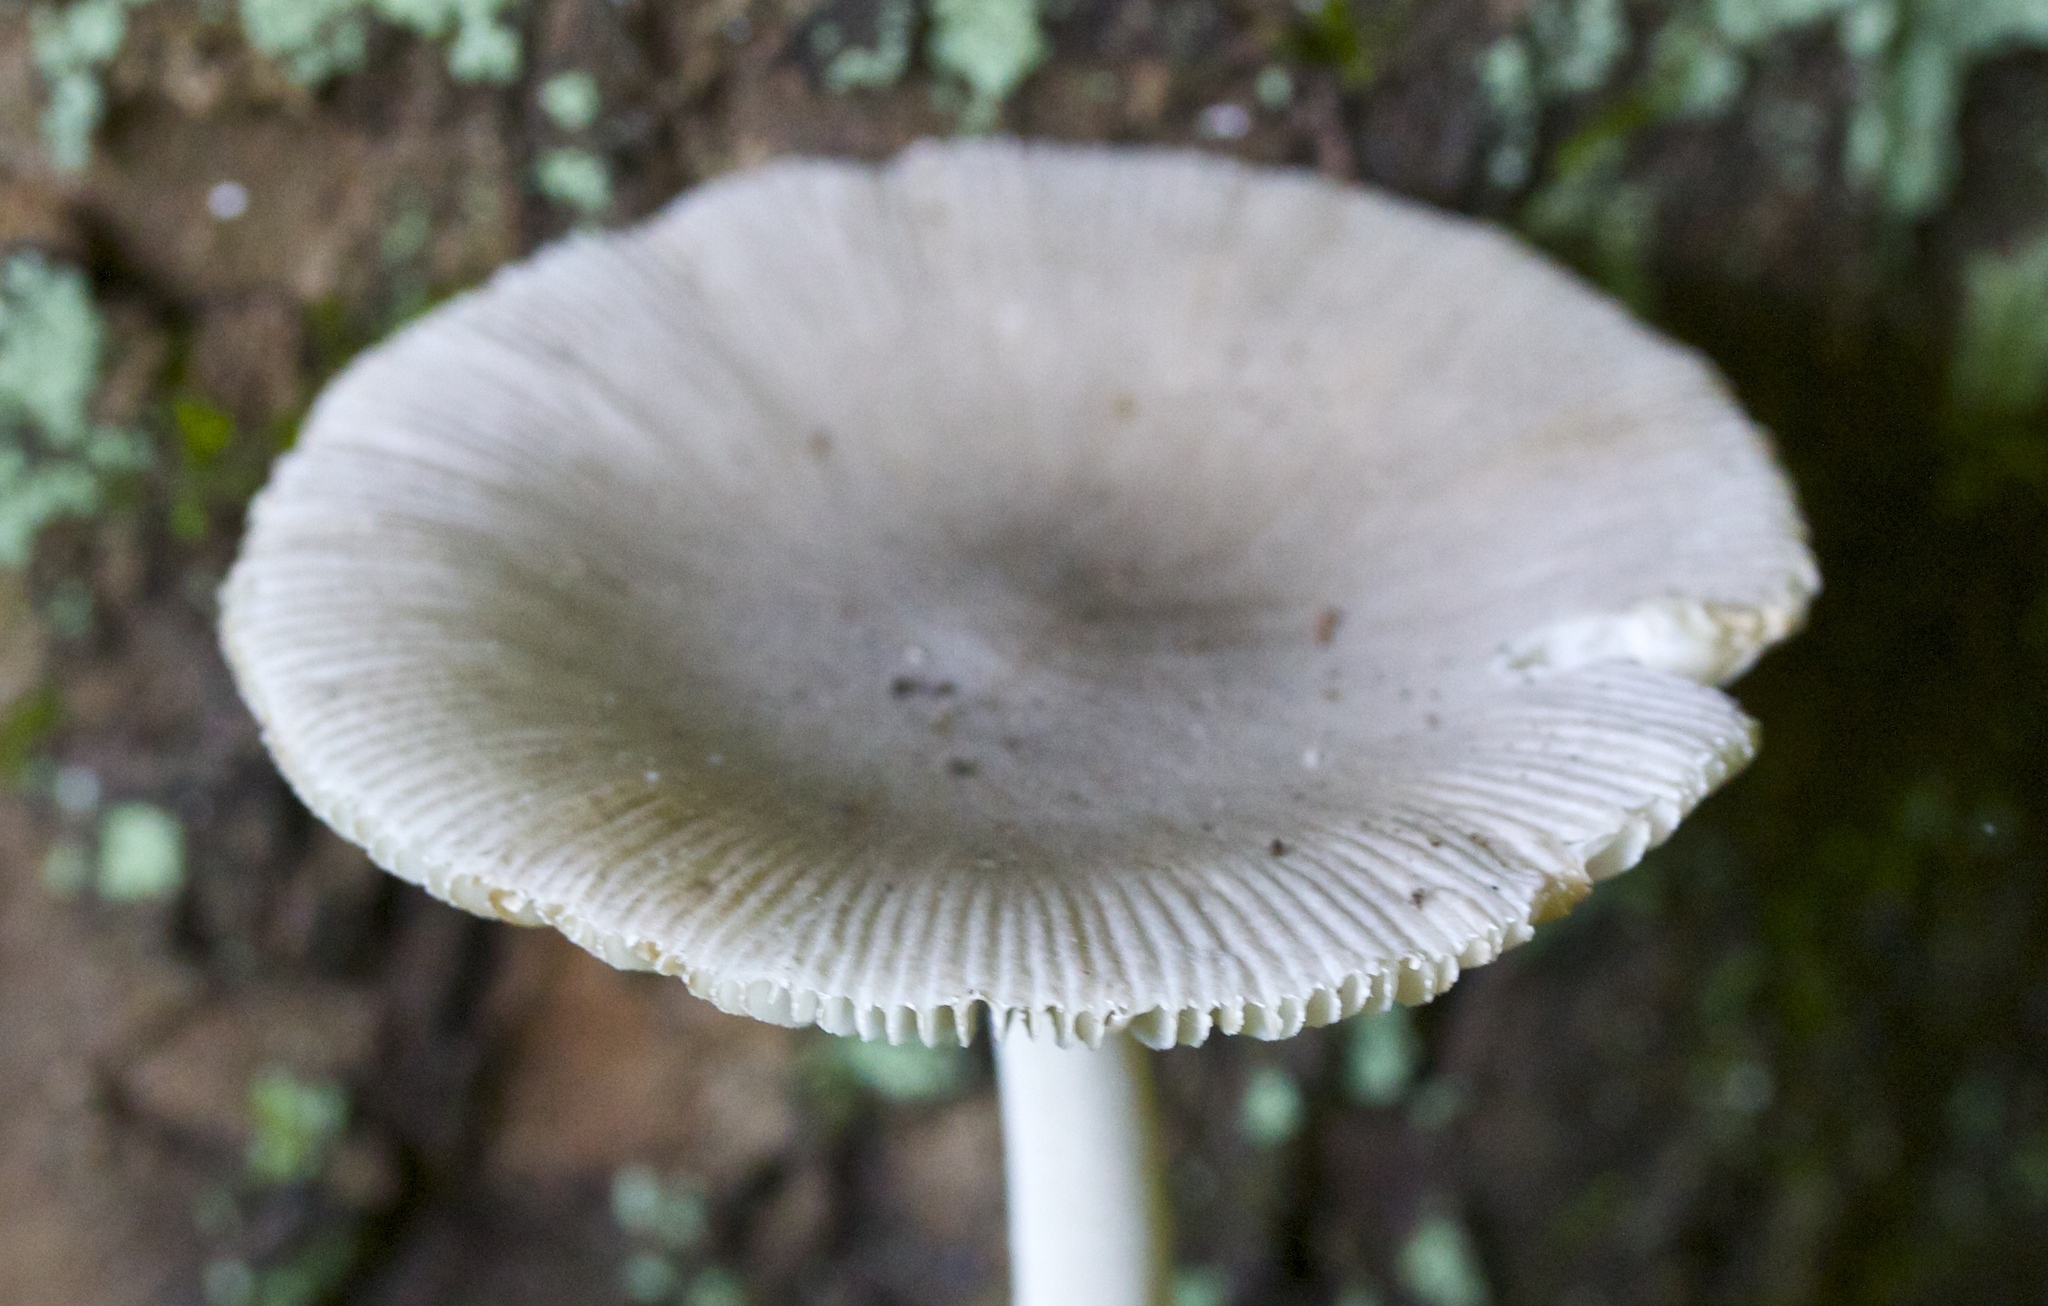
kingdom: Fungi
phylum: Basidiomycota
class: Agaricomycetes
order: Agaricales
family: Amanitaceae
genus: Amanita
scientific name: Amanita vaginata
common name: Grisette
